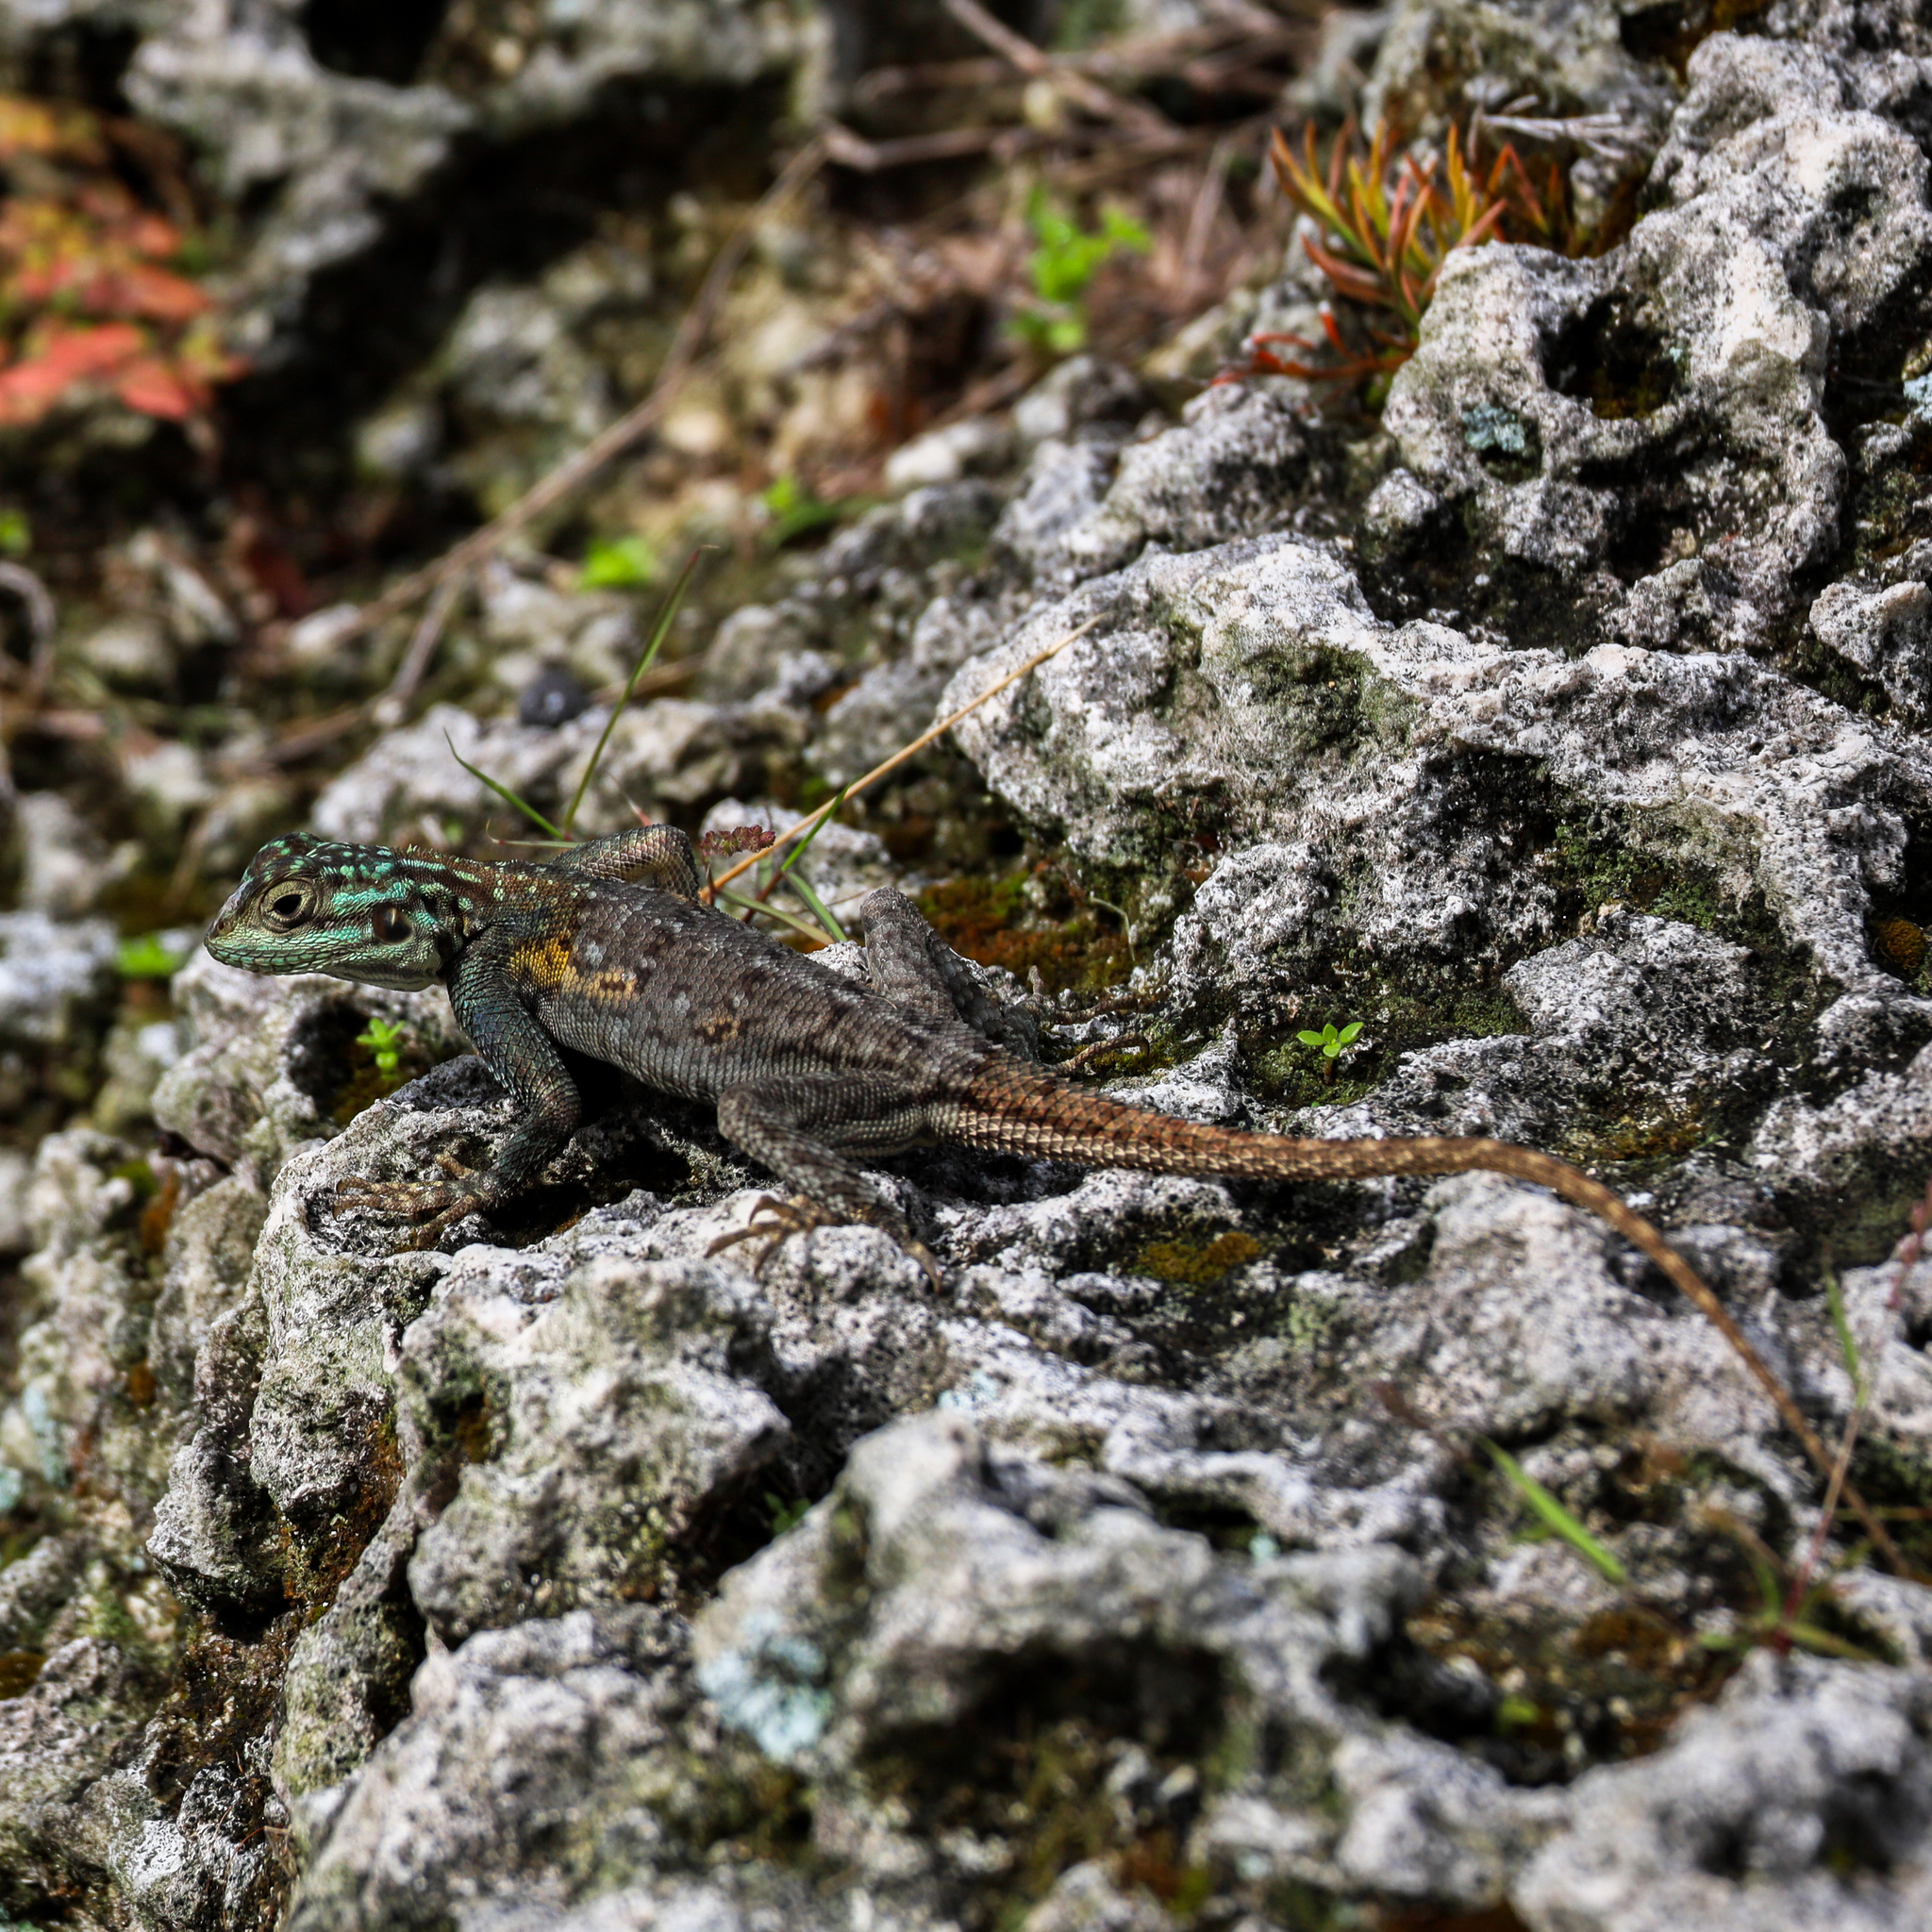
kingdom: Animalia
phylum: Chordata
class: Squamata
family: Agamidae
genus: Agama
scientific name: Agama picticauda
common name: Red-headed agama
